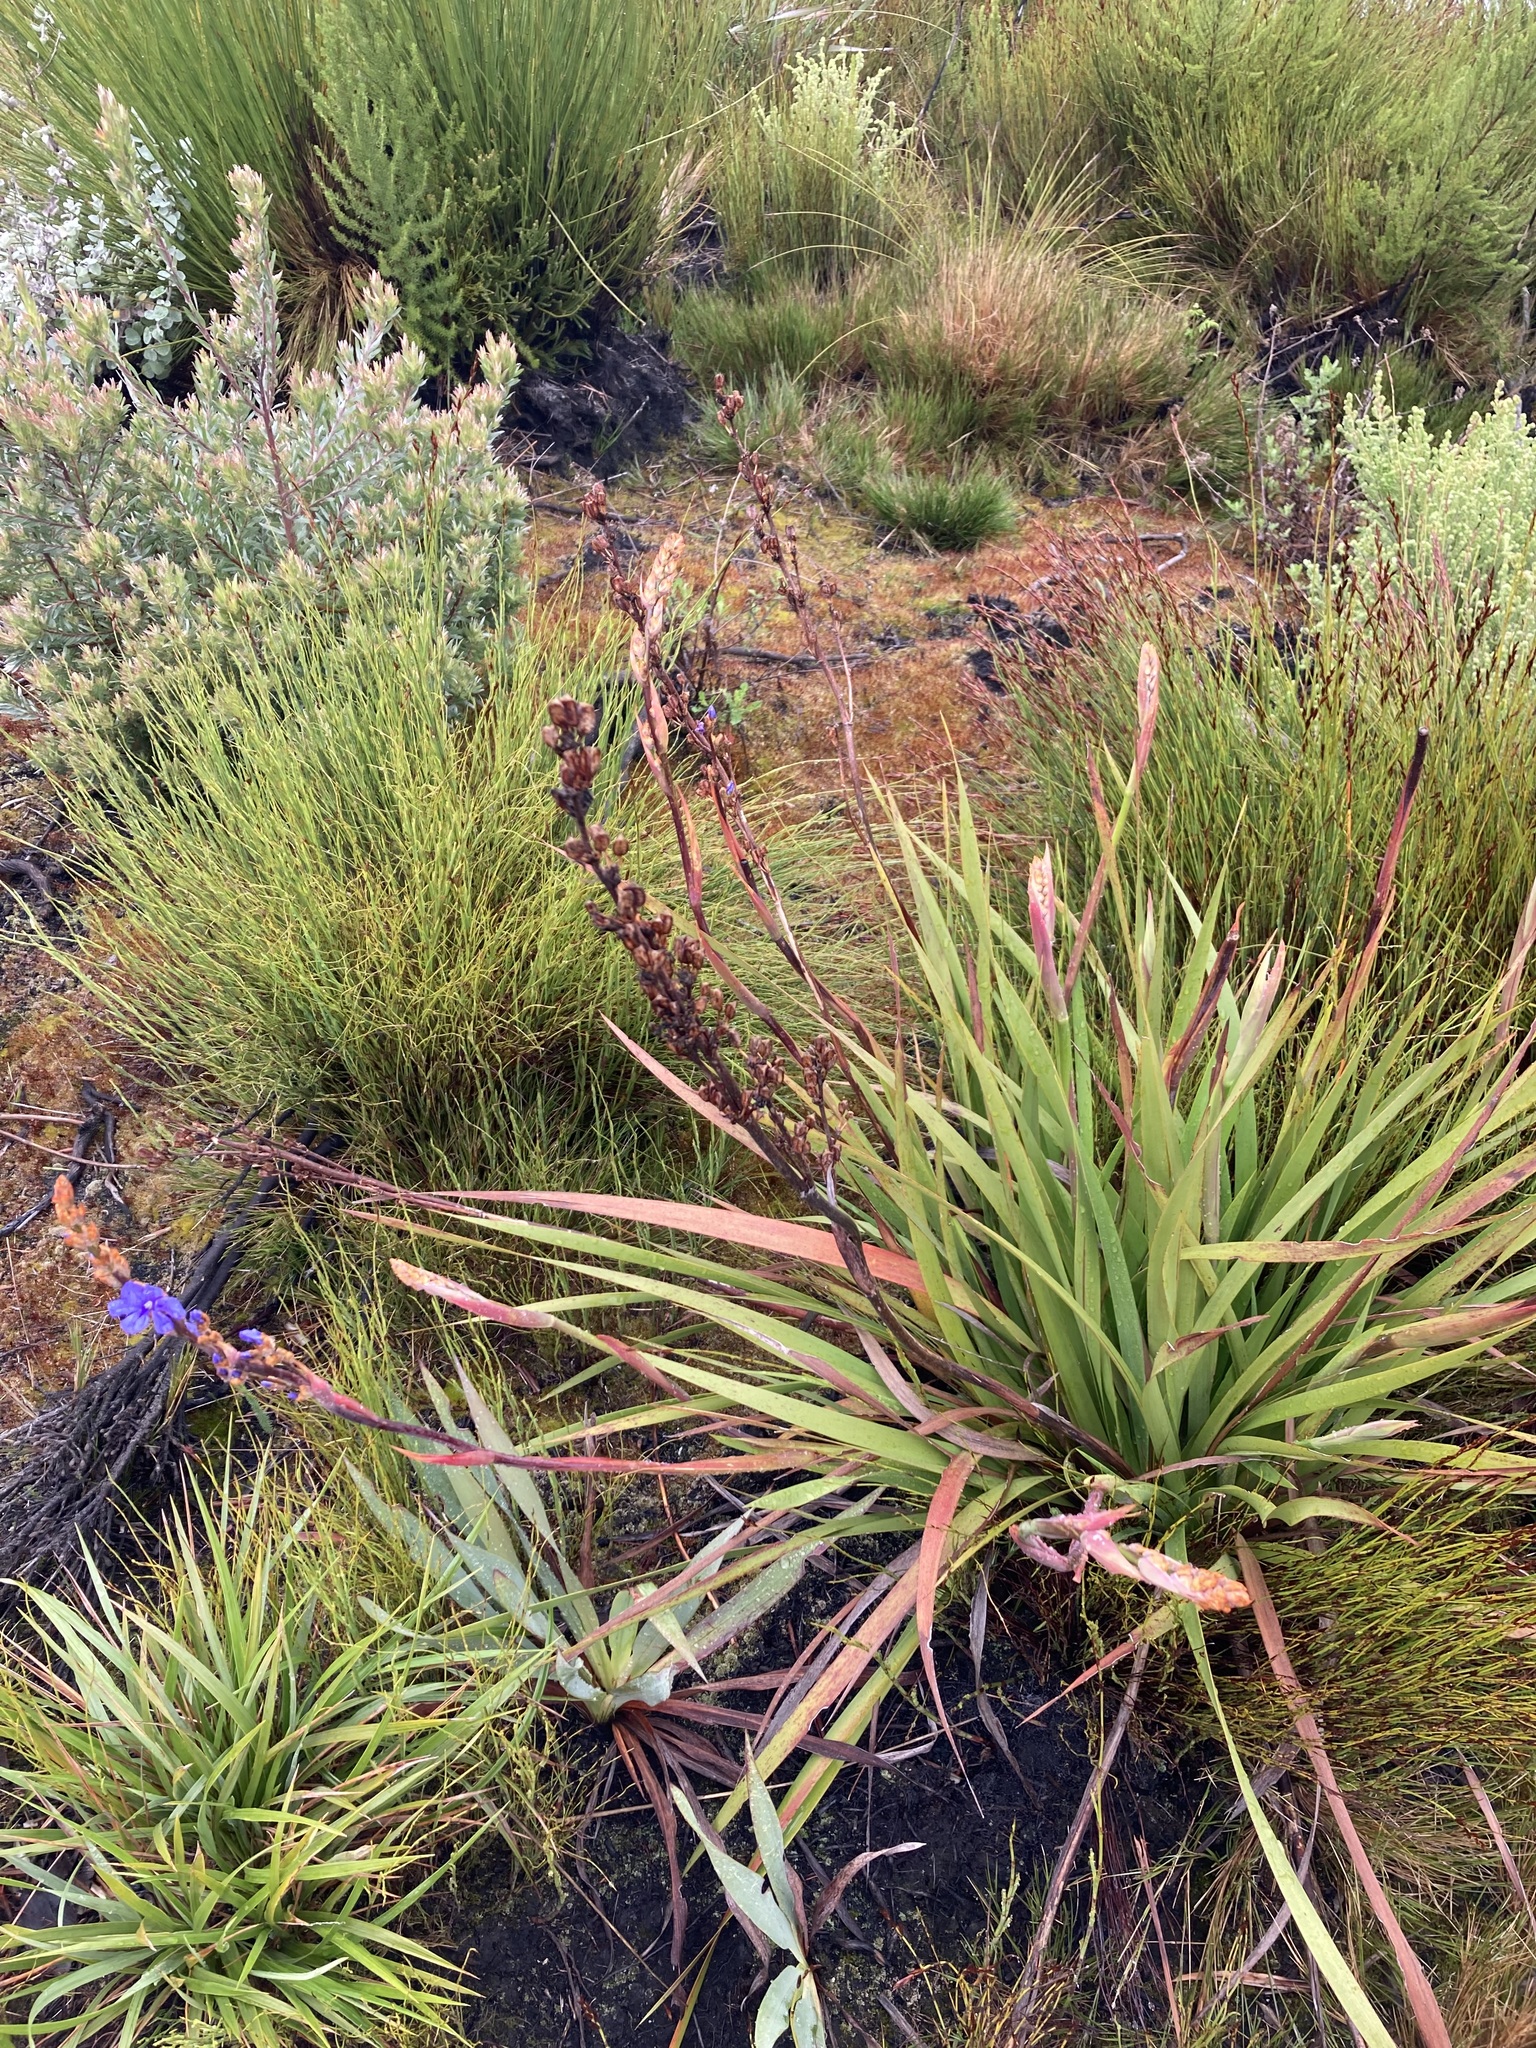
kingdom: Plantae
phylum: Tracheophyta
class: Liliopsida
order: Asparagales
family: Iridaceae
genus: Aristea
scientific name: Aristea bakeri
